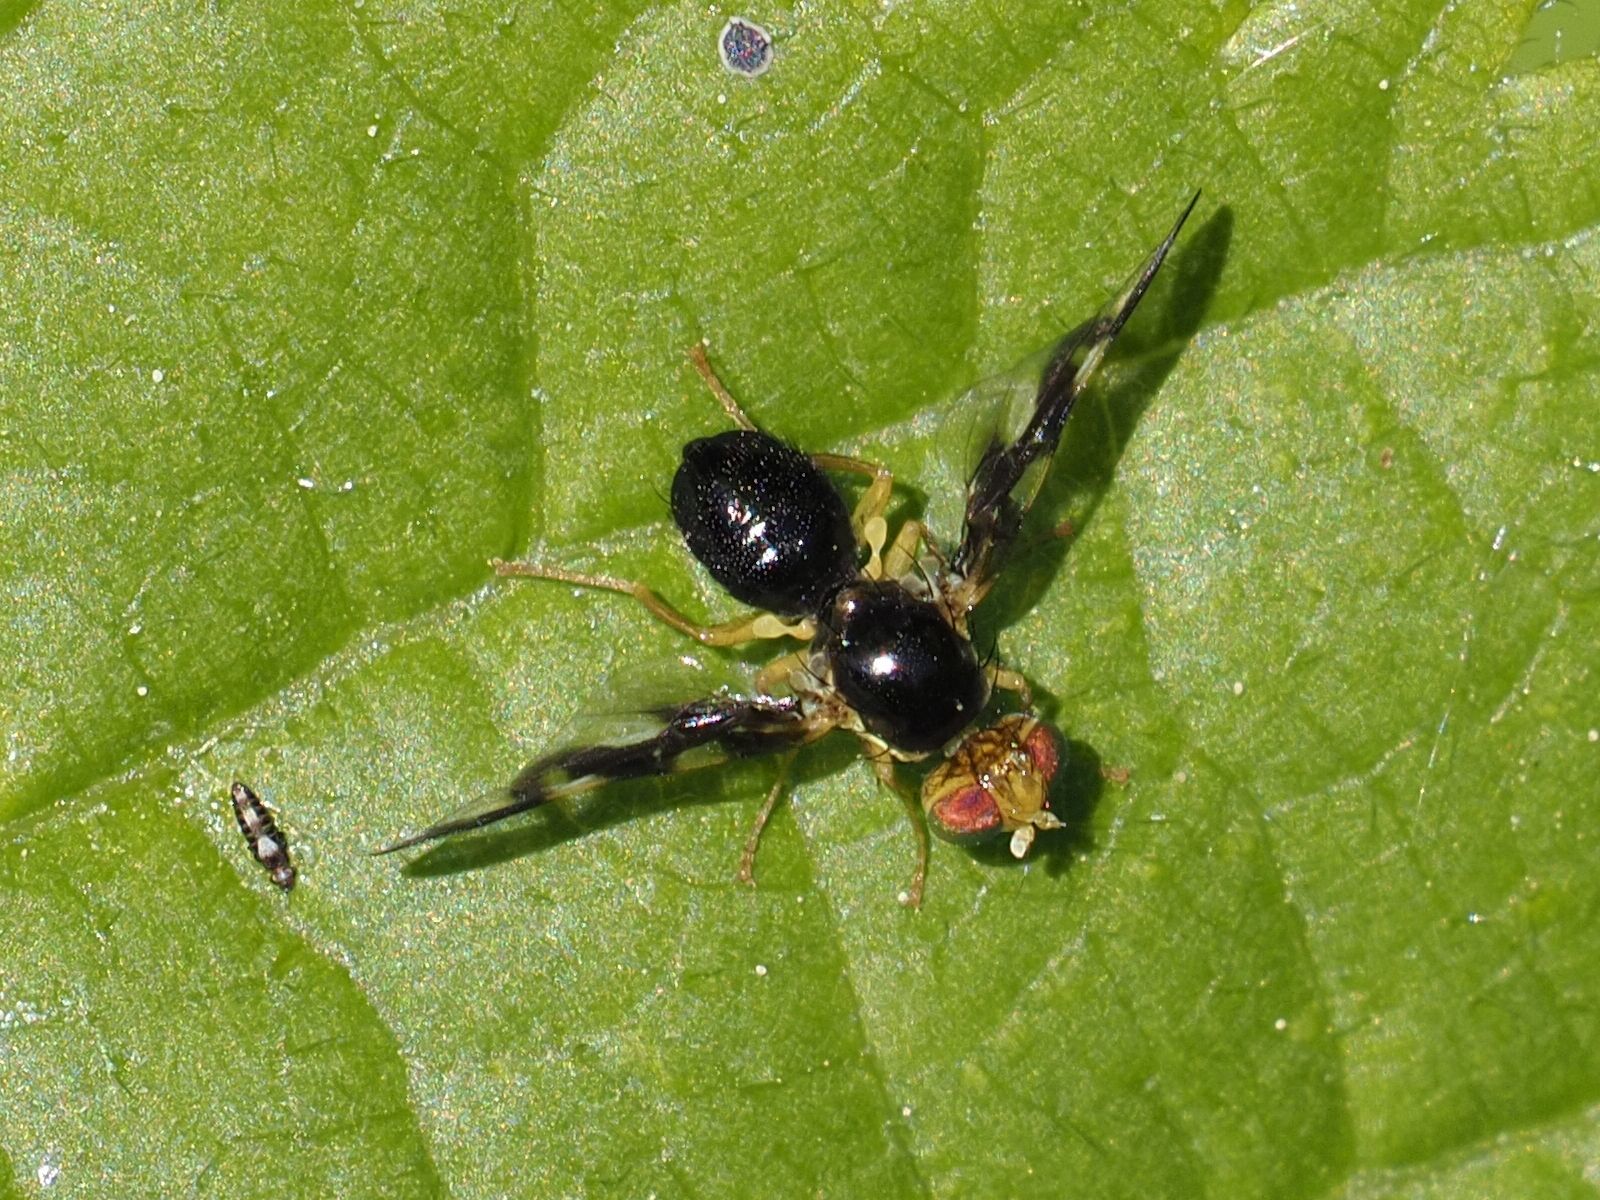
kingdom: Animalia
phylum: Arthropoda
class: Insecta
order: Diptera
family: Tephritidae
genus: Euleia
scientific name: Euleia heraclei
